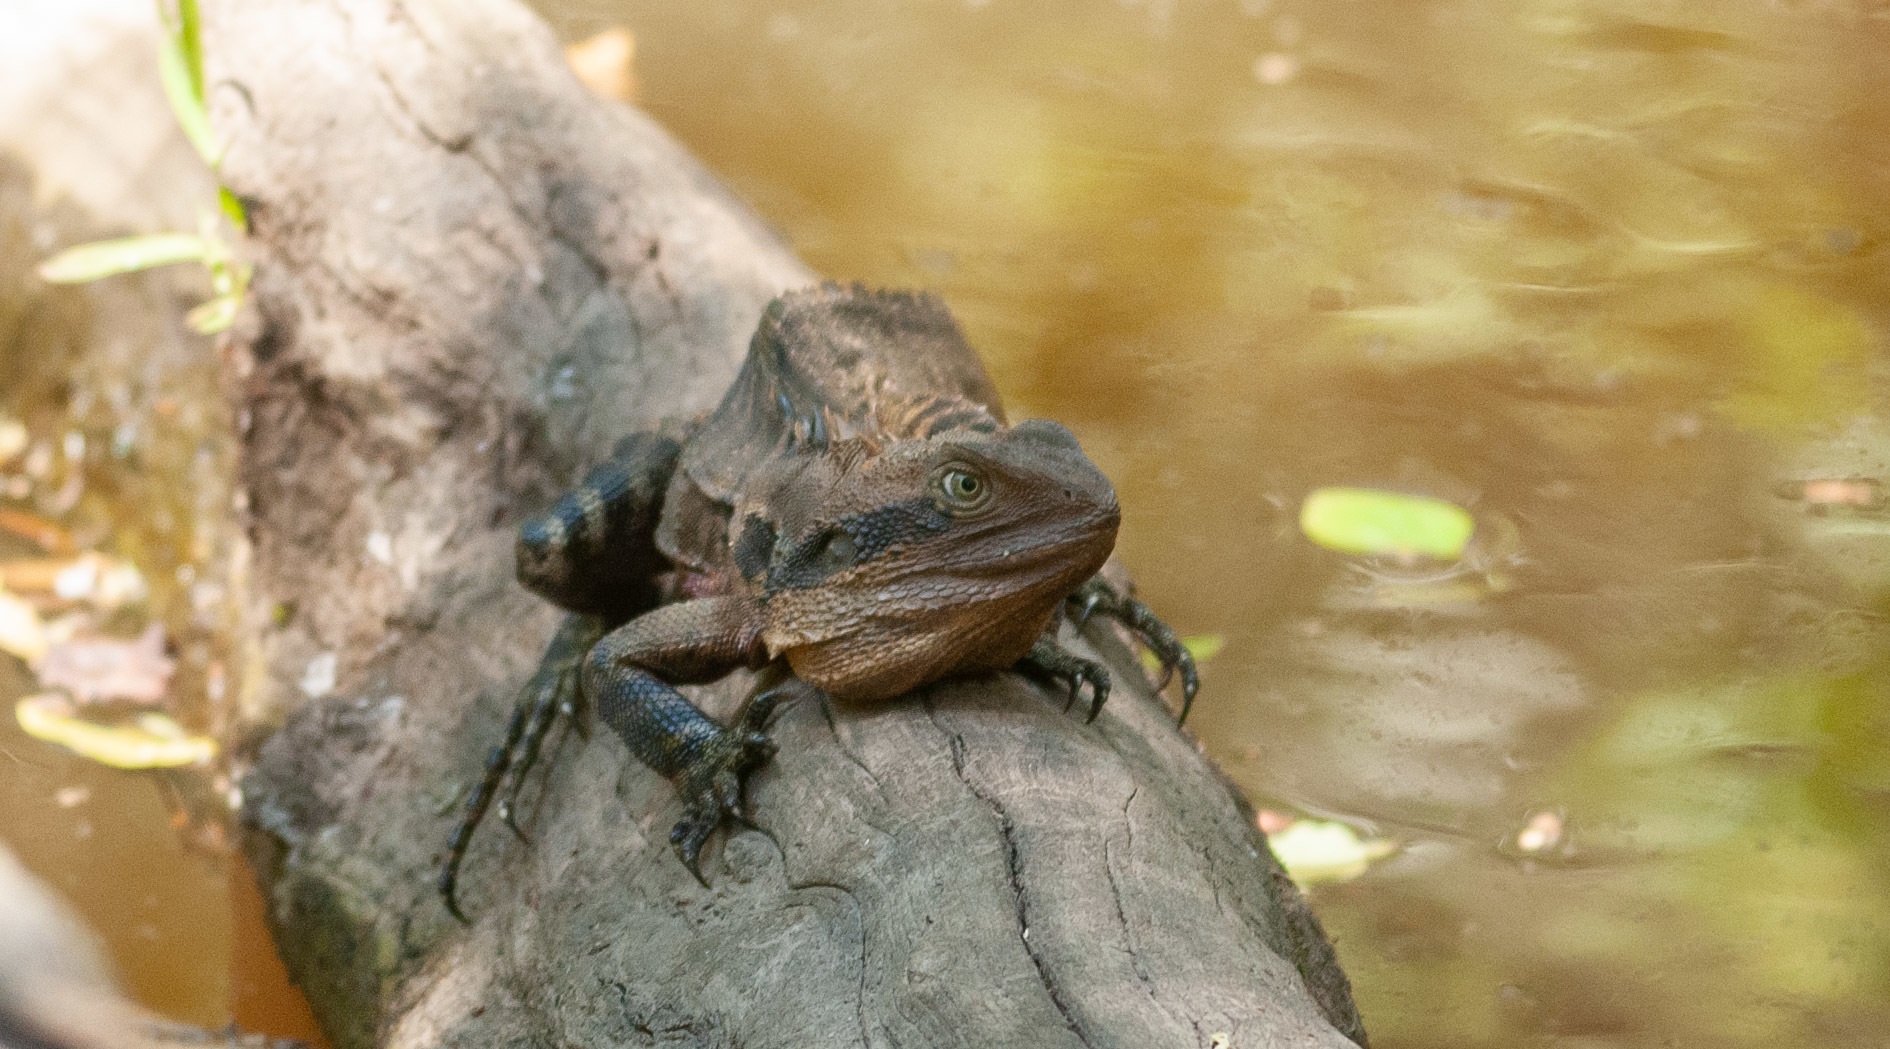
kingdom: Animalia
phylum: Chordata
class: Squamata
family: Agamidae
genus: Intellagama
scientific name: Intellagama lesueurii
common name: Eastern water dragon
